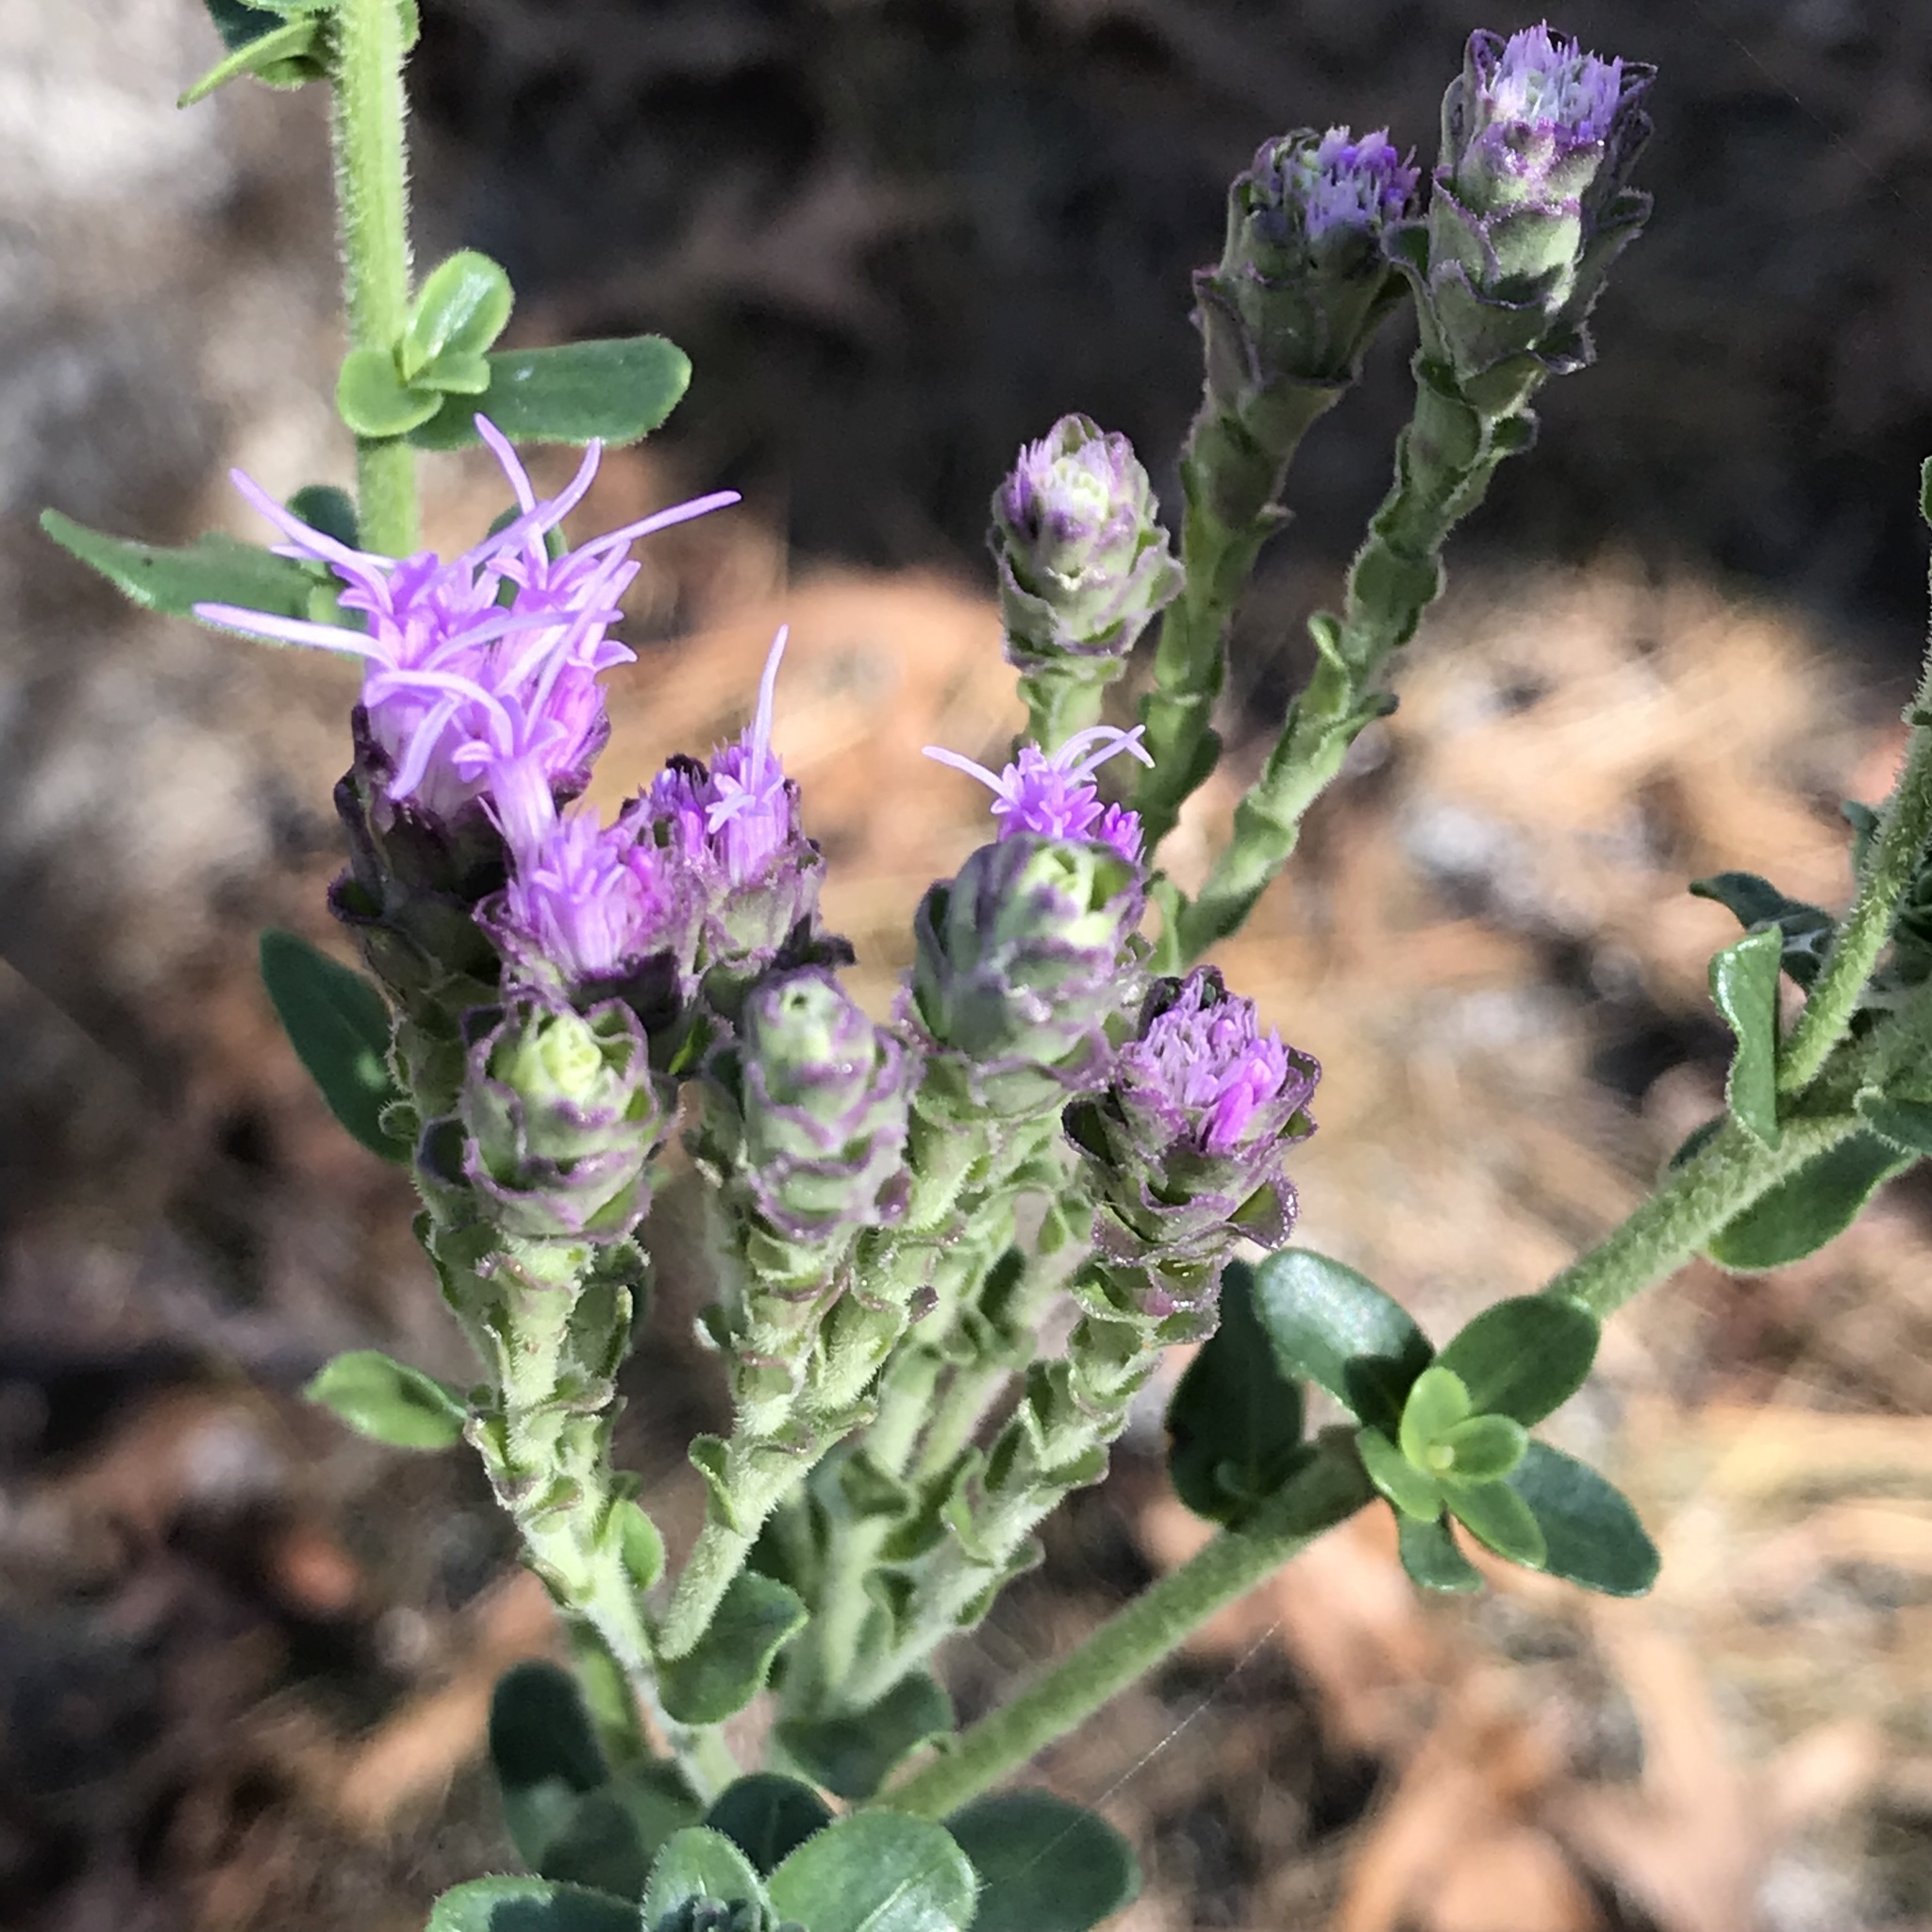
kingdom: Plantae
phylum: Tracheophyta
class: Magnoliopsida
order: Asterales
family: Asteraceae
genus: Carphephorus
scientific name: Carphephorus corymbosus
